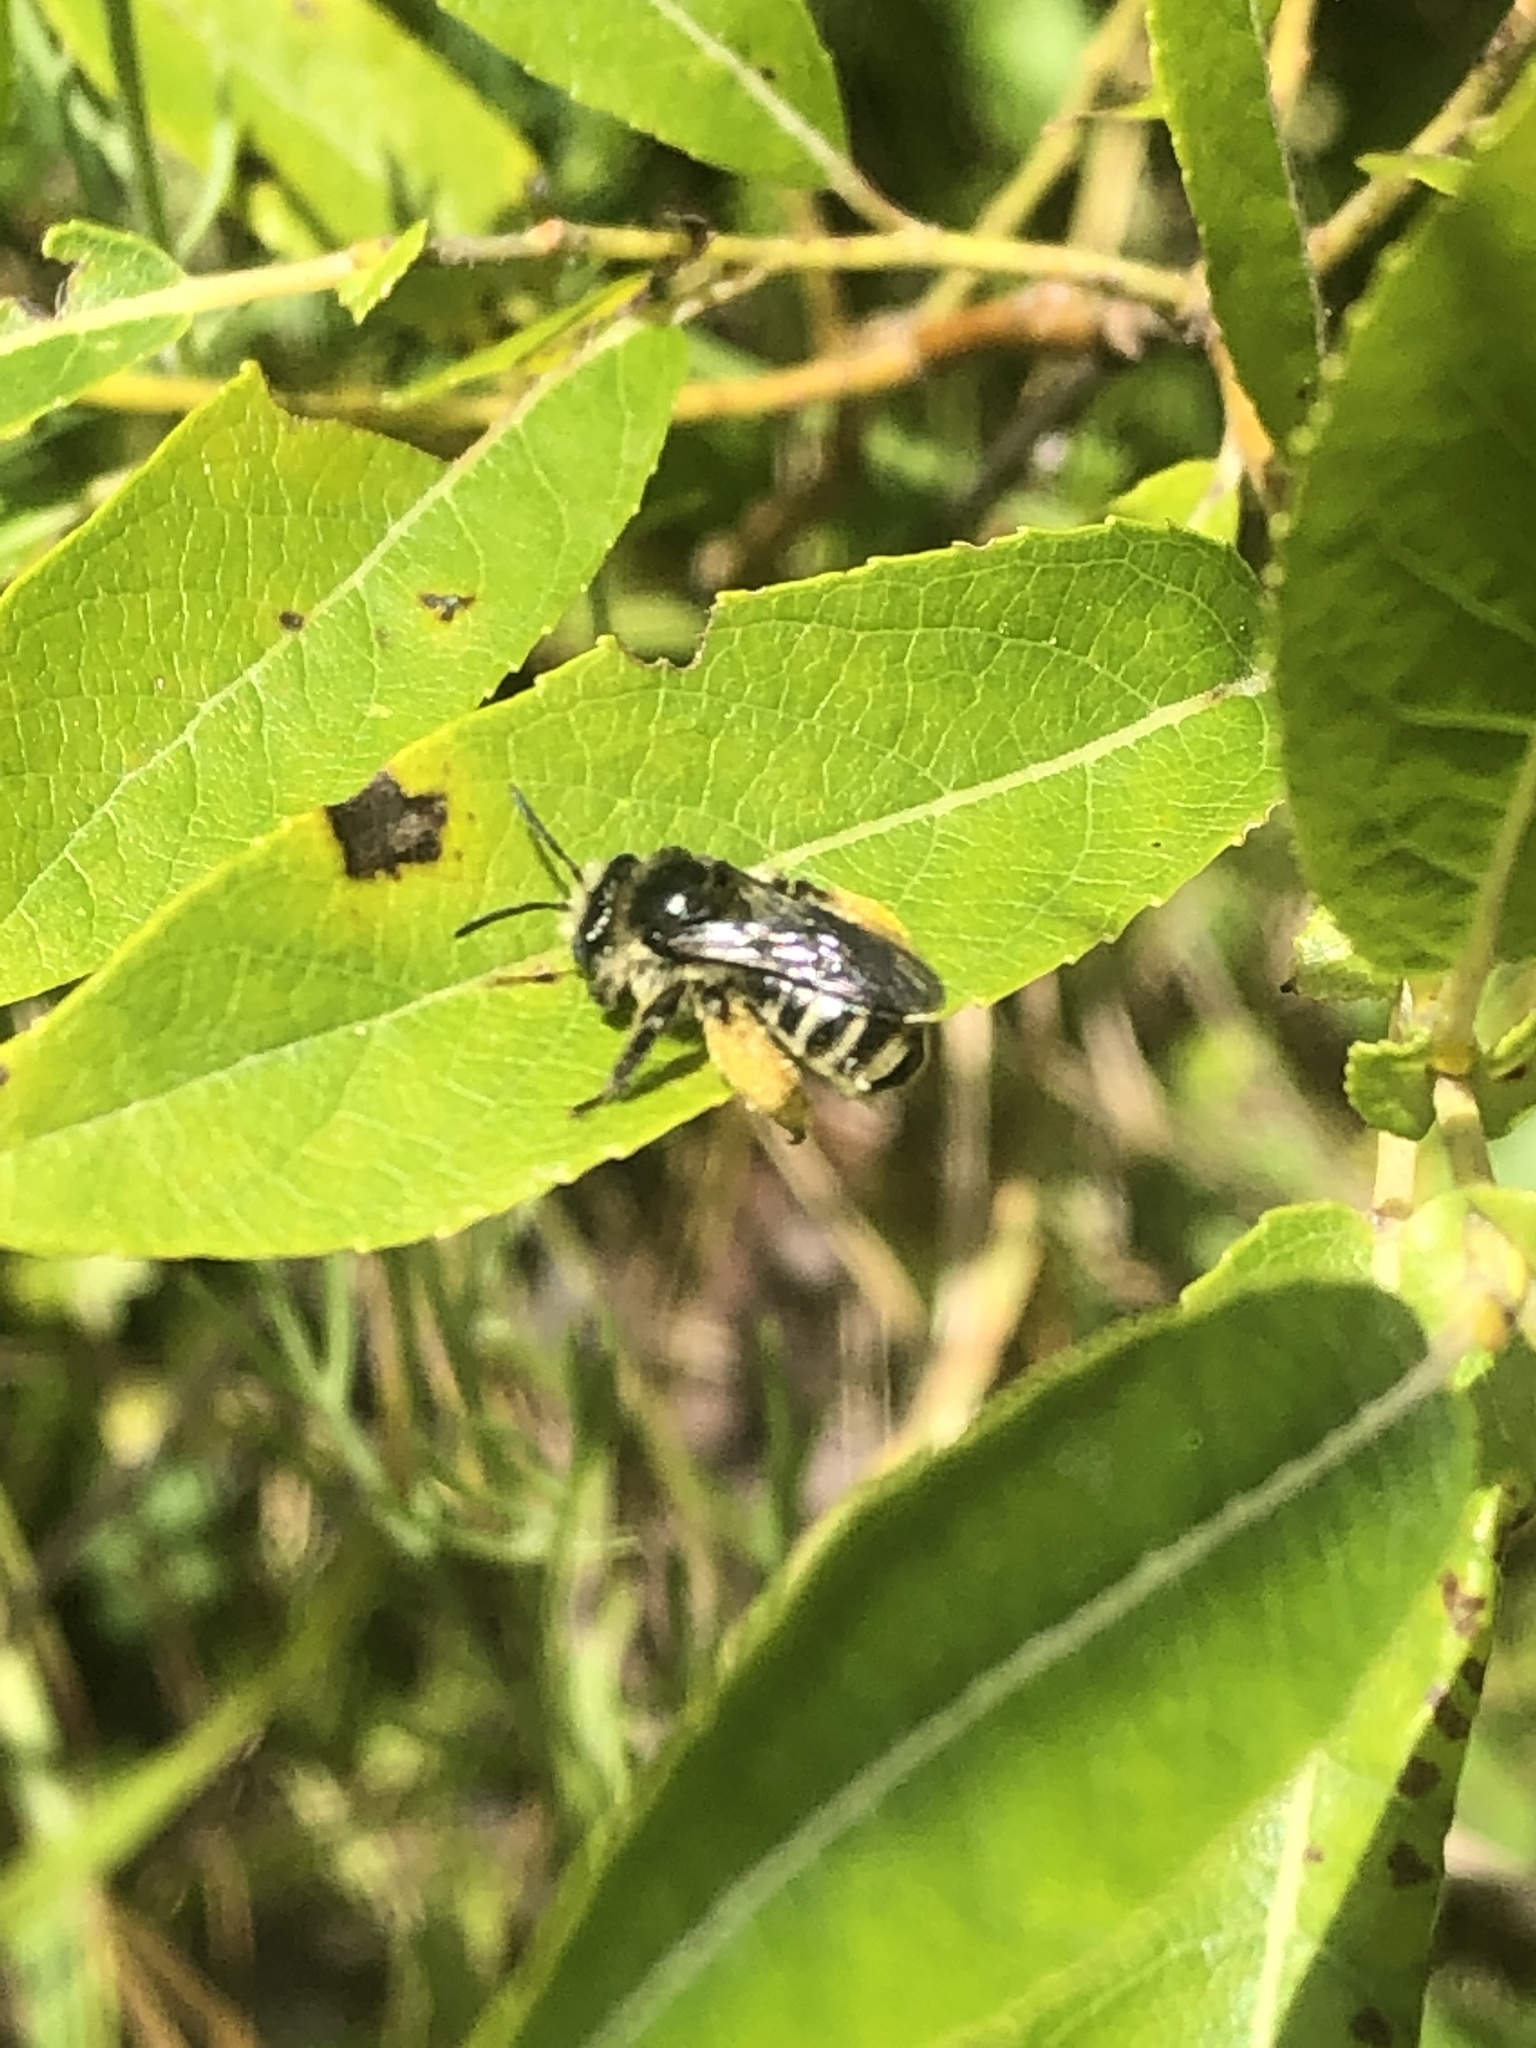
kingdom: Animalia
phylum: Arthropoda
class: Insecta
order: Hymenoptera
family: Apidae
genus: Melissodes
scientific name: Melissodes illatus
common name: Valiant long-horned bee
